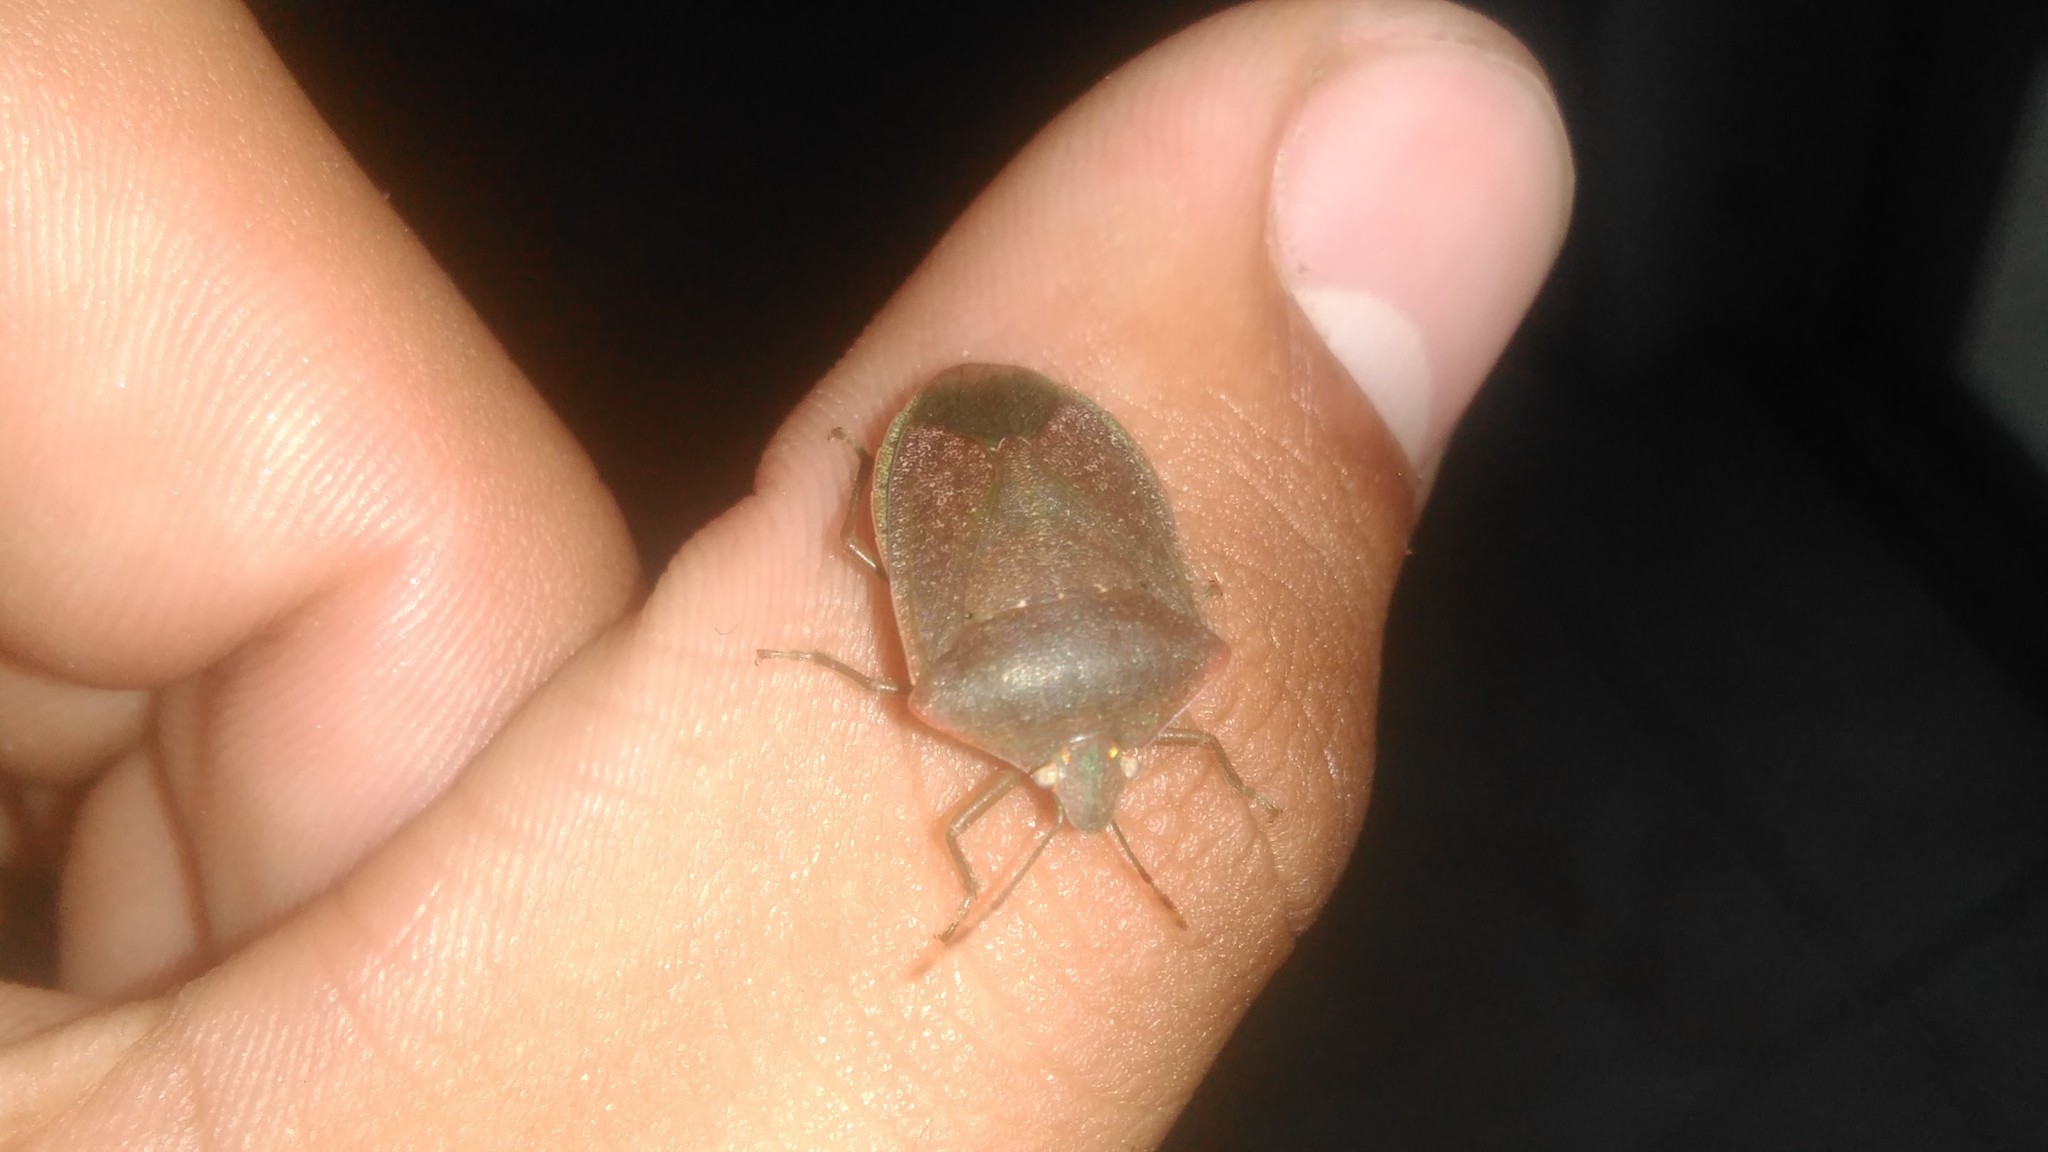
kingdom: Animalia
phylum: Arthropoda
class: Insecta
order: Hemiptera
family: Pentatomidae
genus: Nezara
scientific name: Nezara viridula
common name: Southern green stink bug
